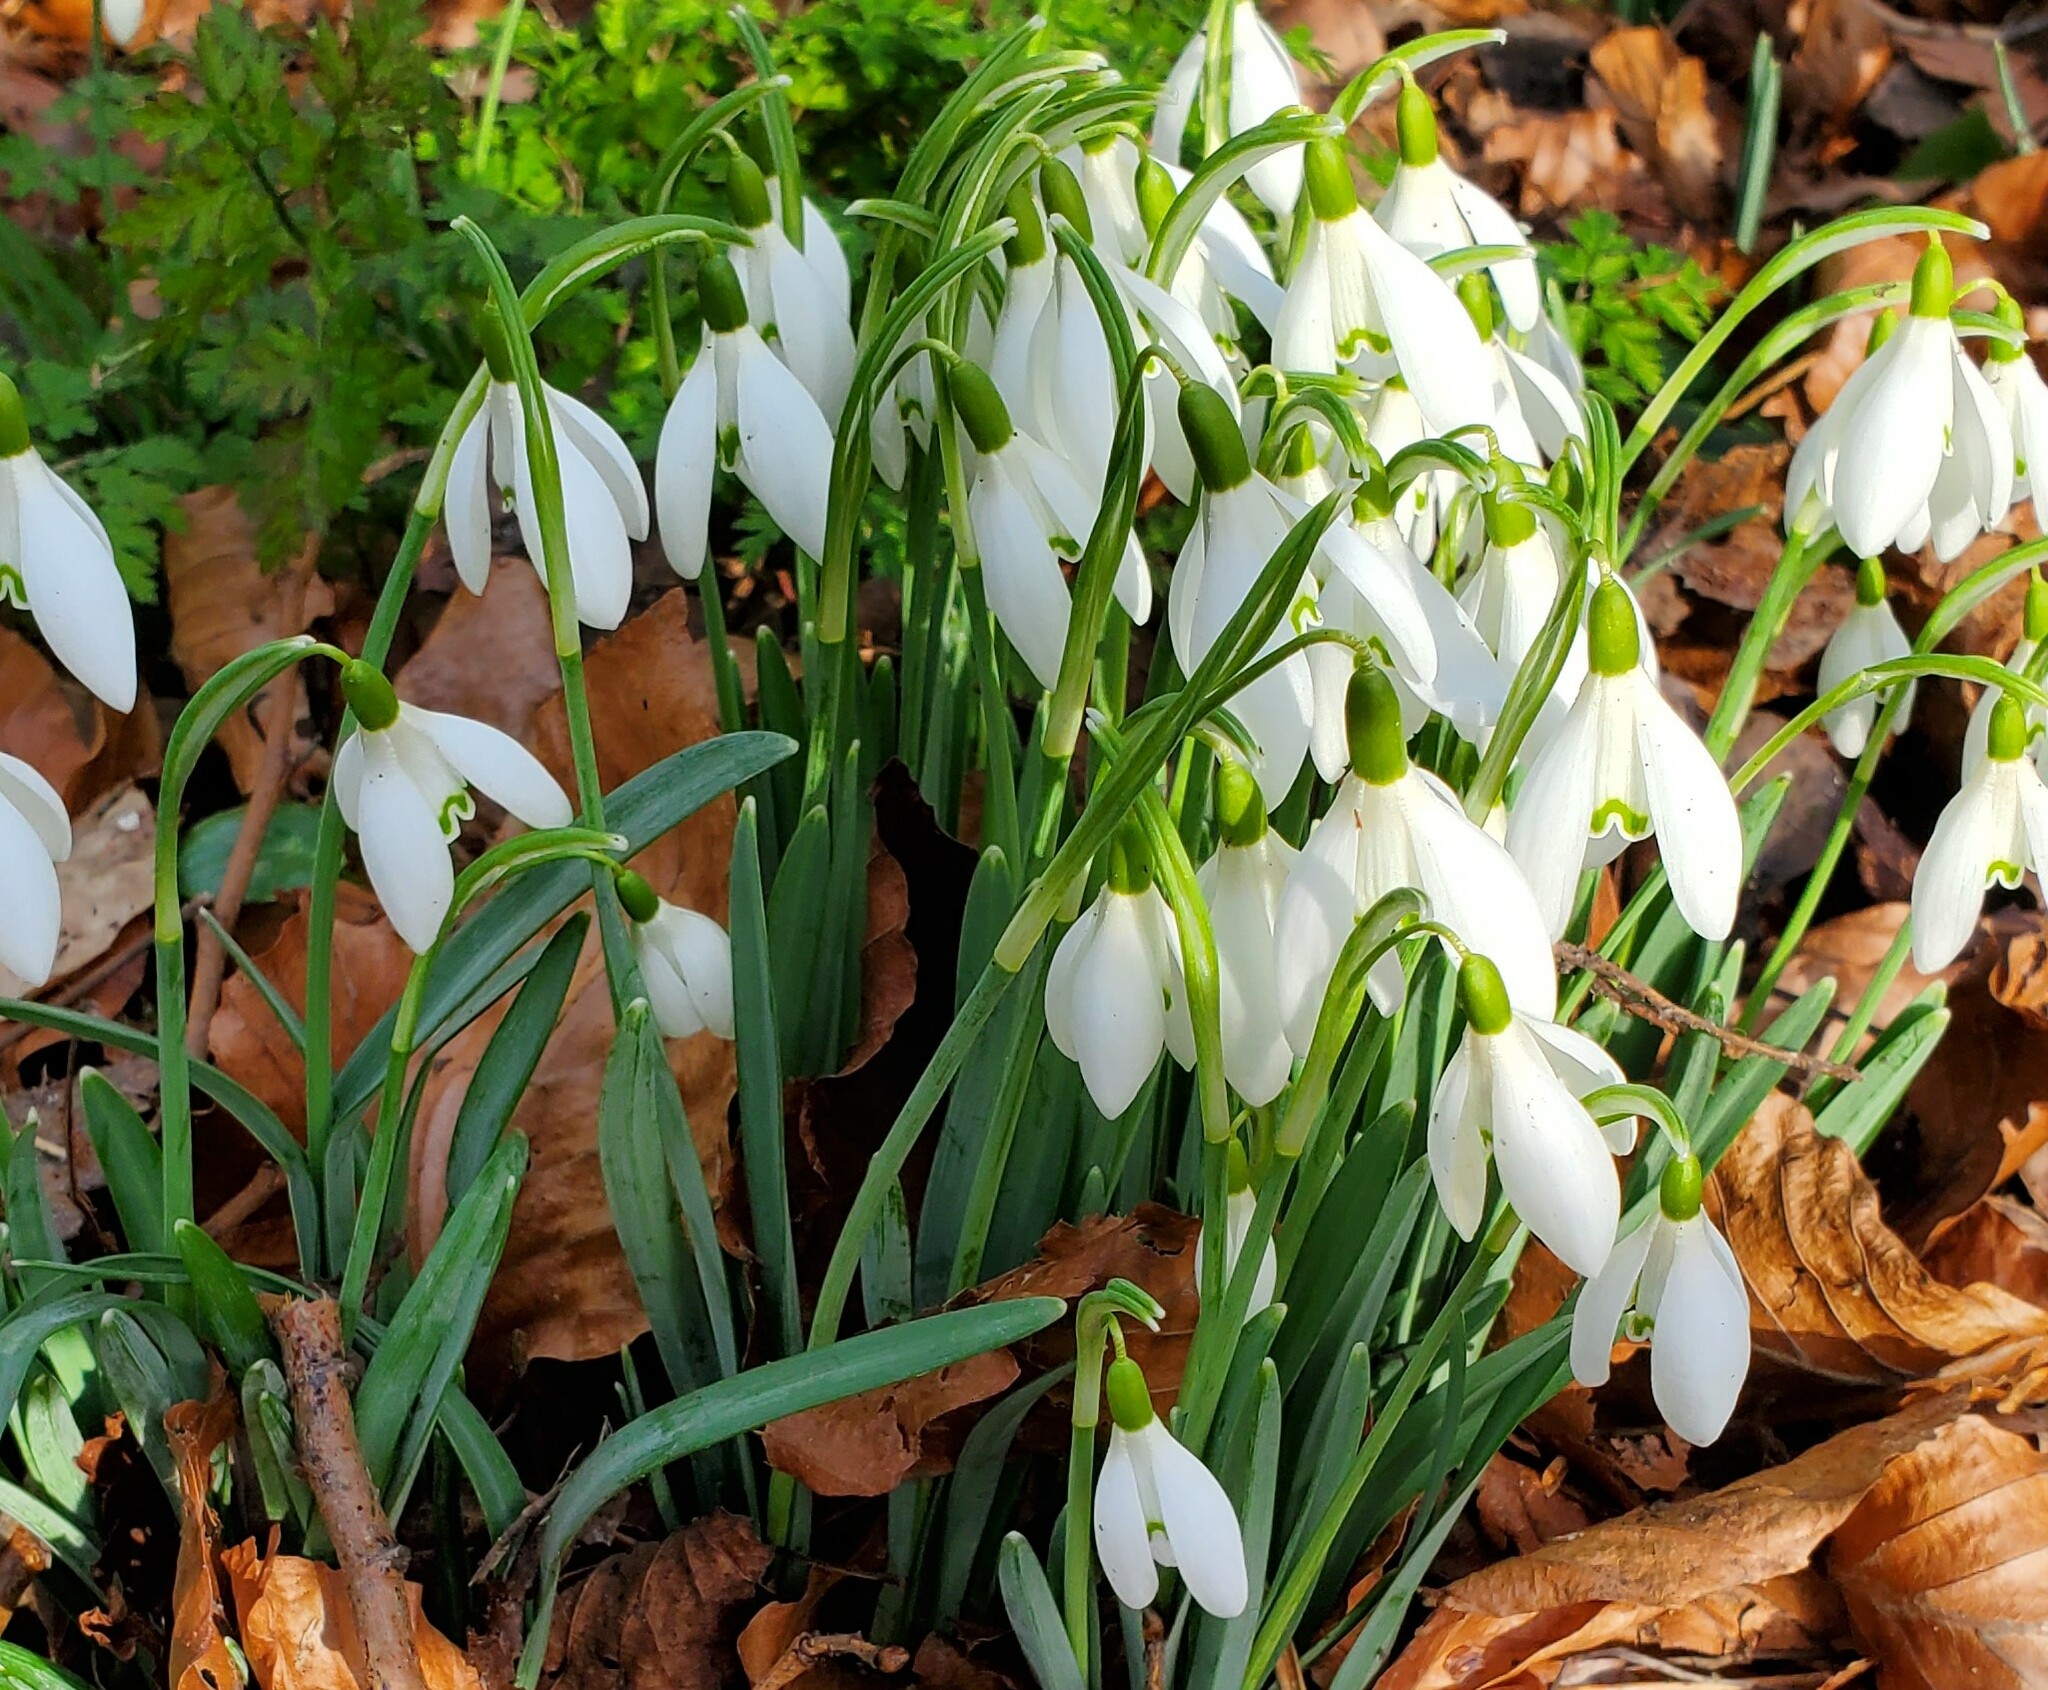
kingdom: Plantae
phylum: Tracheophyta
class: Liliopsida
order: Asparagales
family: Amaryllidaceae
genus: Galanthus
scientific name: Galanthus nivalis
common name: Snowdrop
